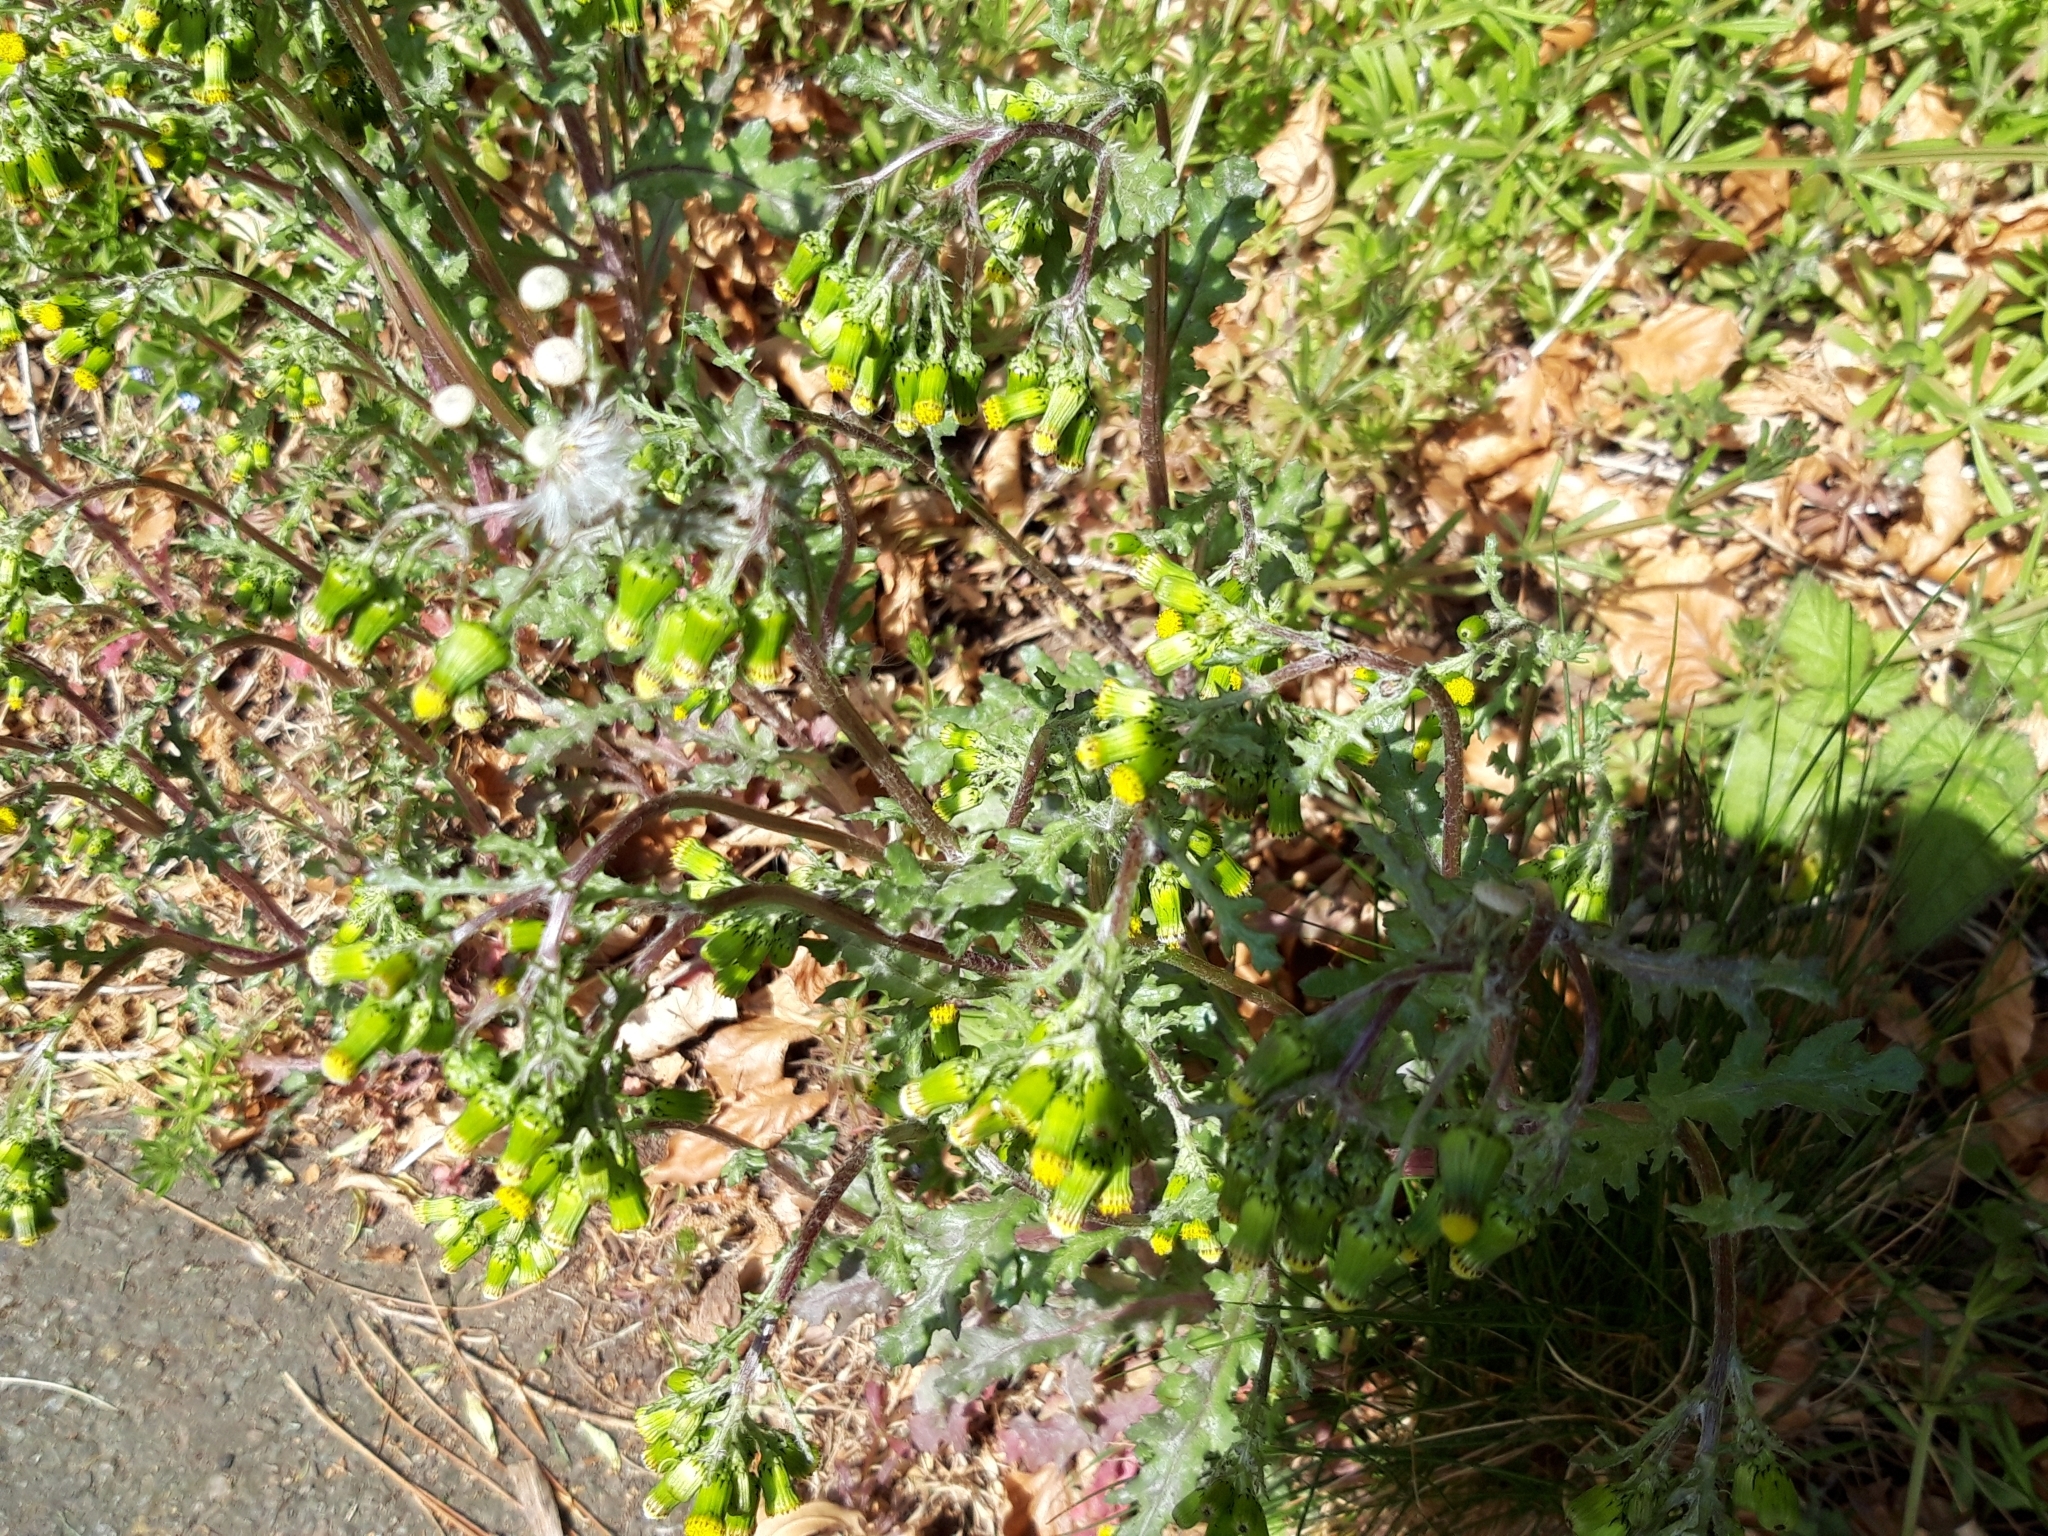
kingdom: Plantae
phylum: Tracheophyta
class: Magnoliopsida
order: Asterales
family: Asteraceae
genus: Senecio
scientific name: Senecio vulgaris
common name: Old-man-in-the-spring
